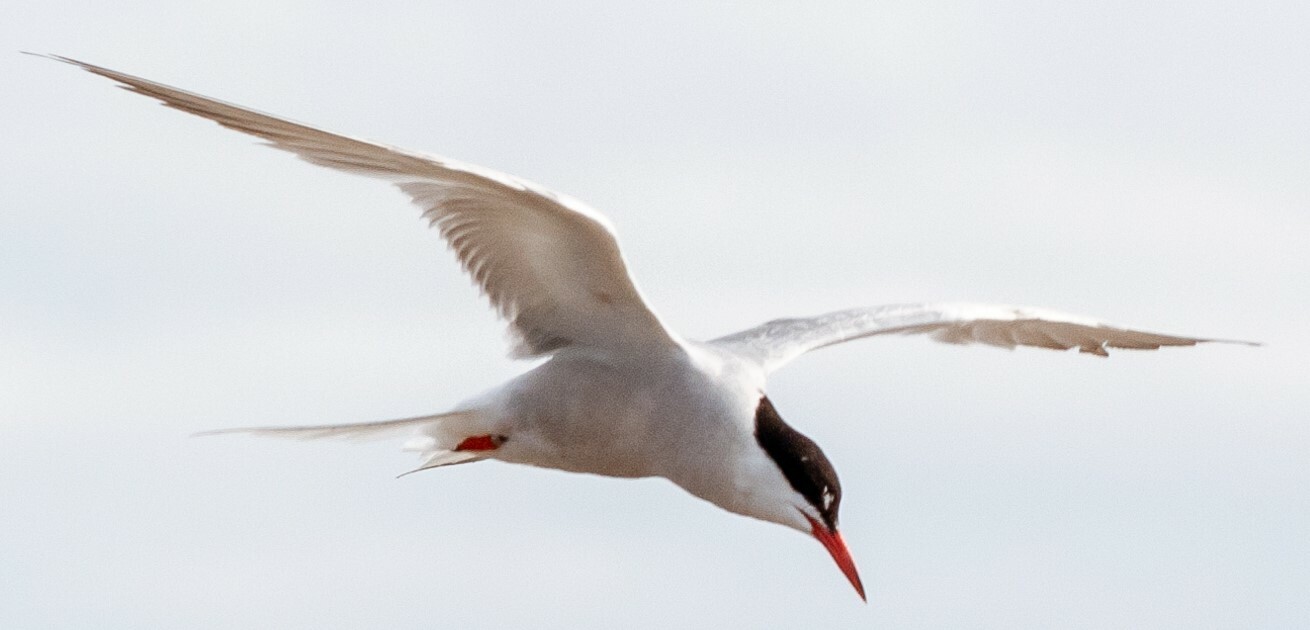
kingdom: Animalia
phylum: Chordata
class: Aves
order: Charadriiformes
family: Laridae
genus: Sterna
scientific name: Sterna paradisaea
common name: Arctic tern
